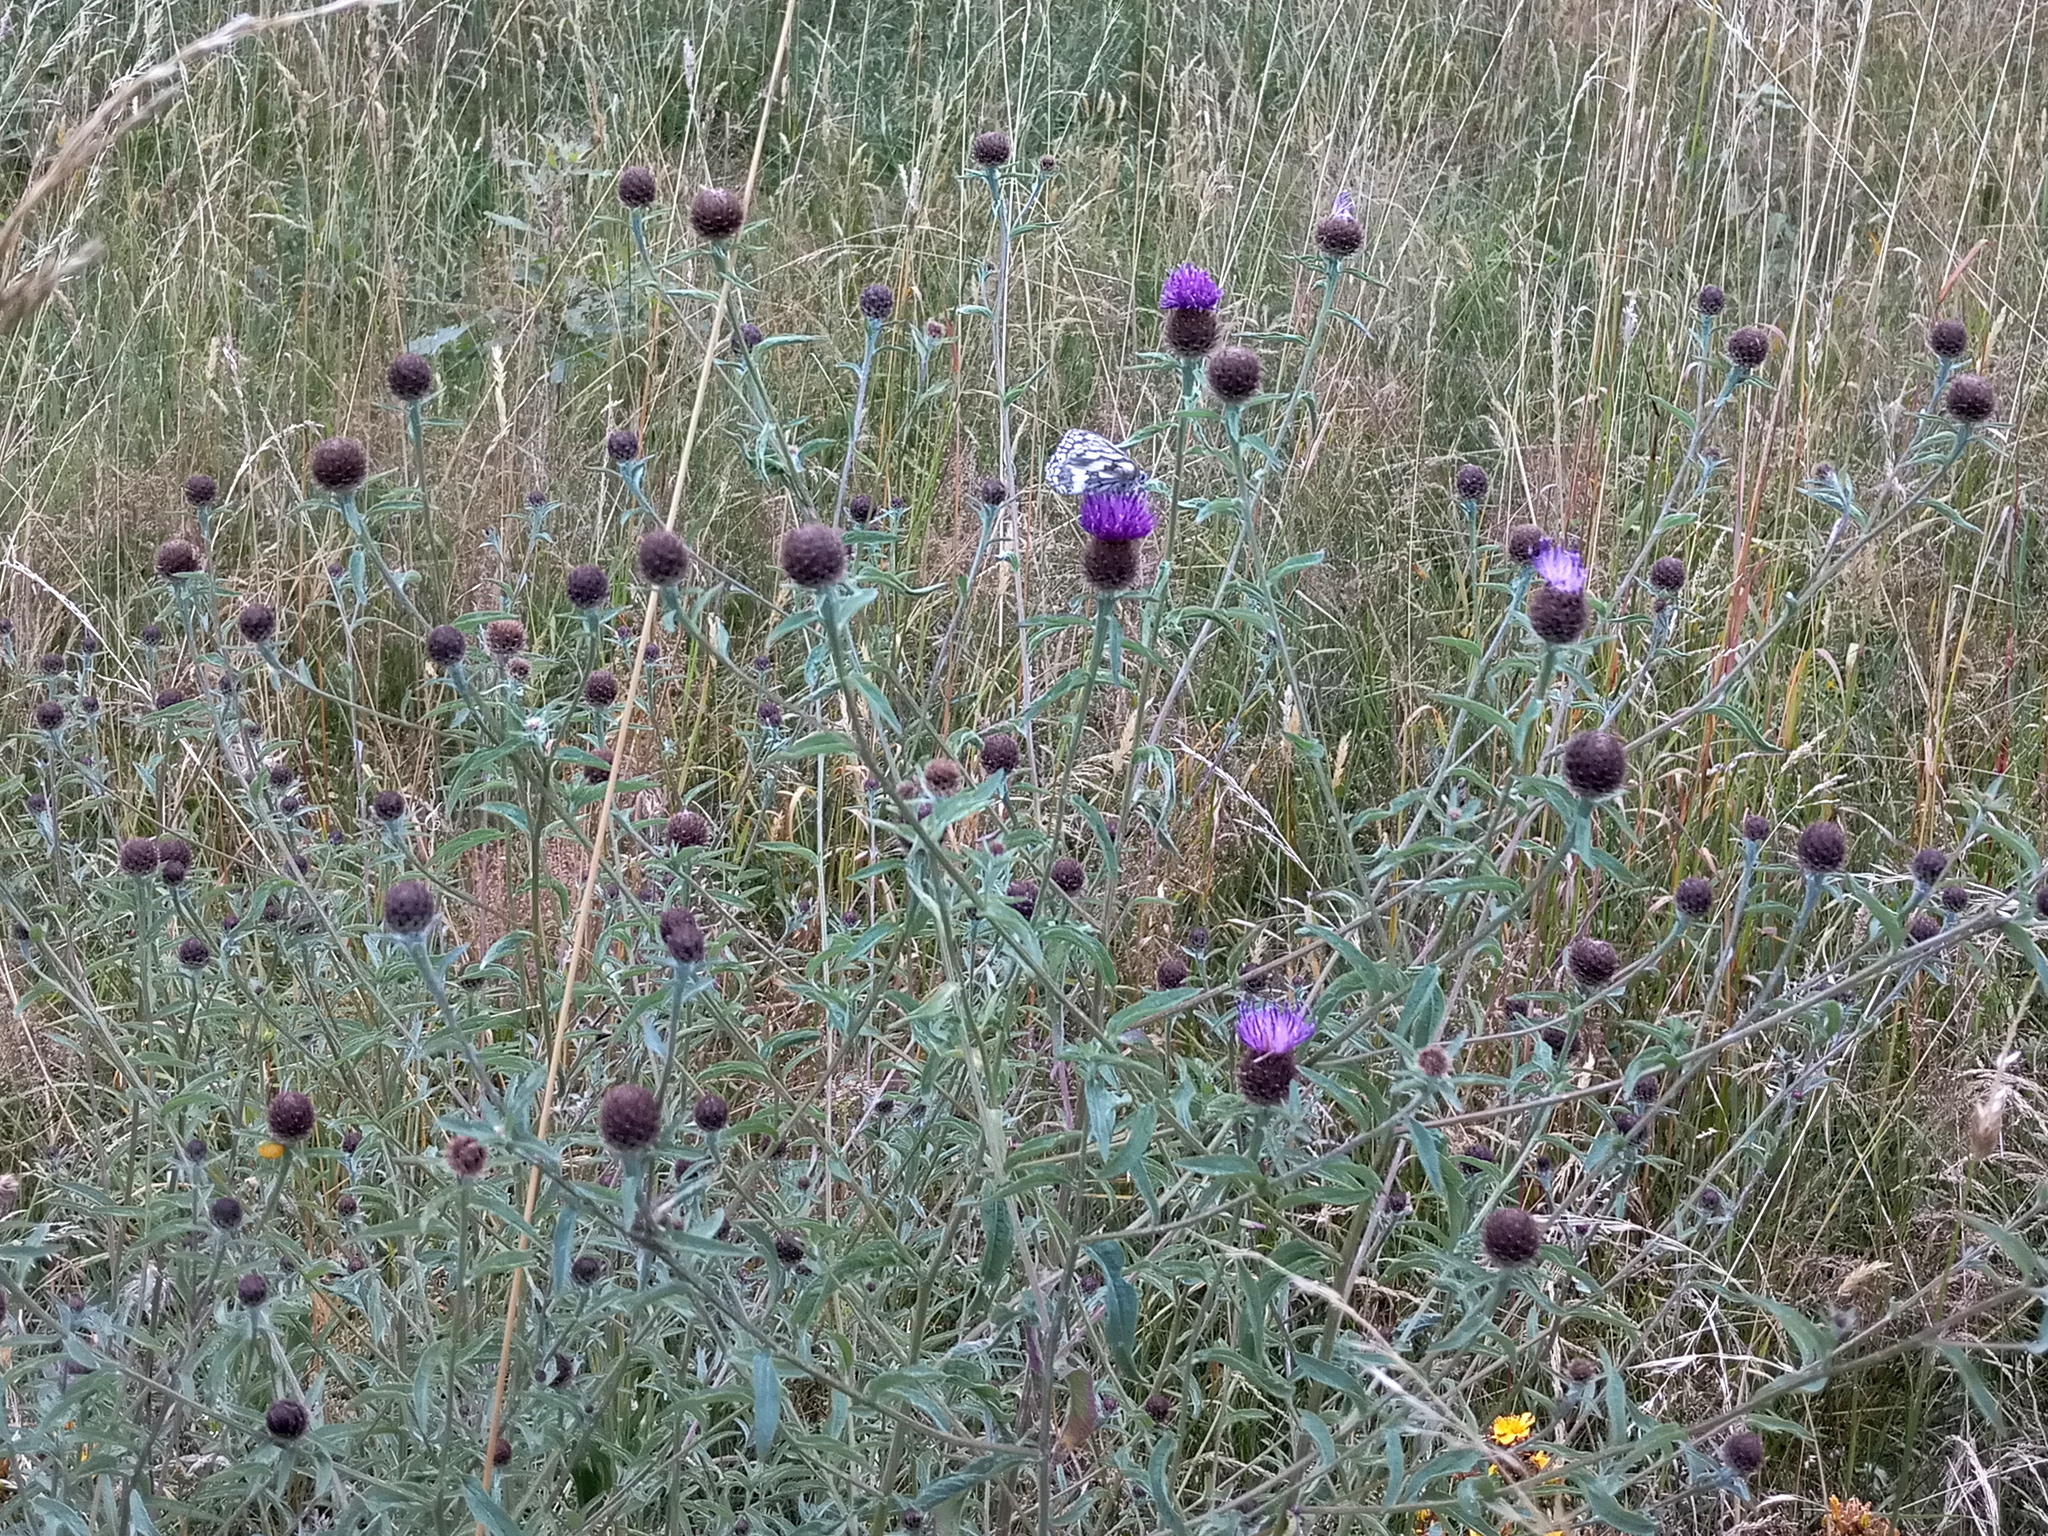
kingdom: Plantae
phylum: Tracheophyta
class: Magnoliopsida
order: Asterales
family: Asteraceae
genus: Centaurea
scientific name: Centaurea nigra
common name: Lesser knapweed
